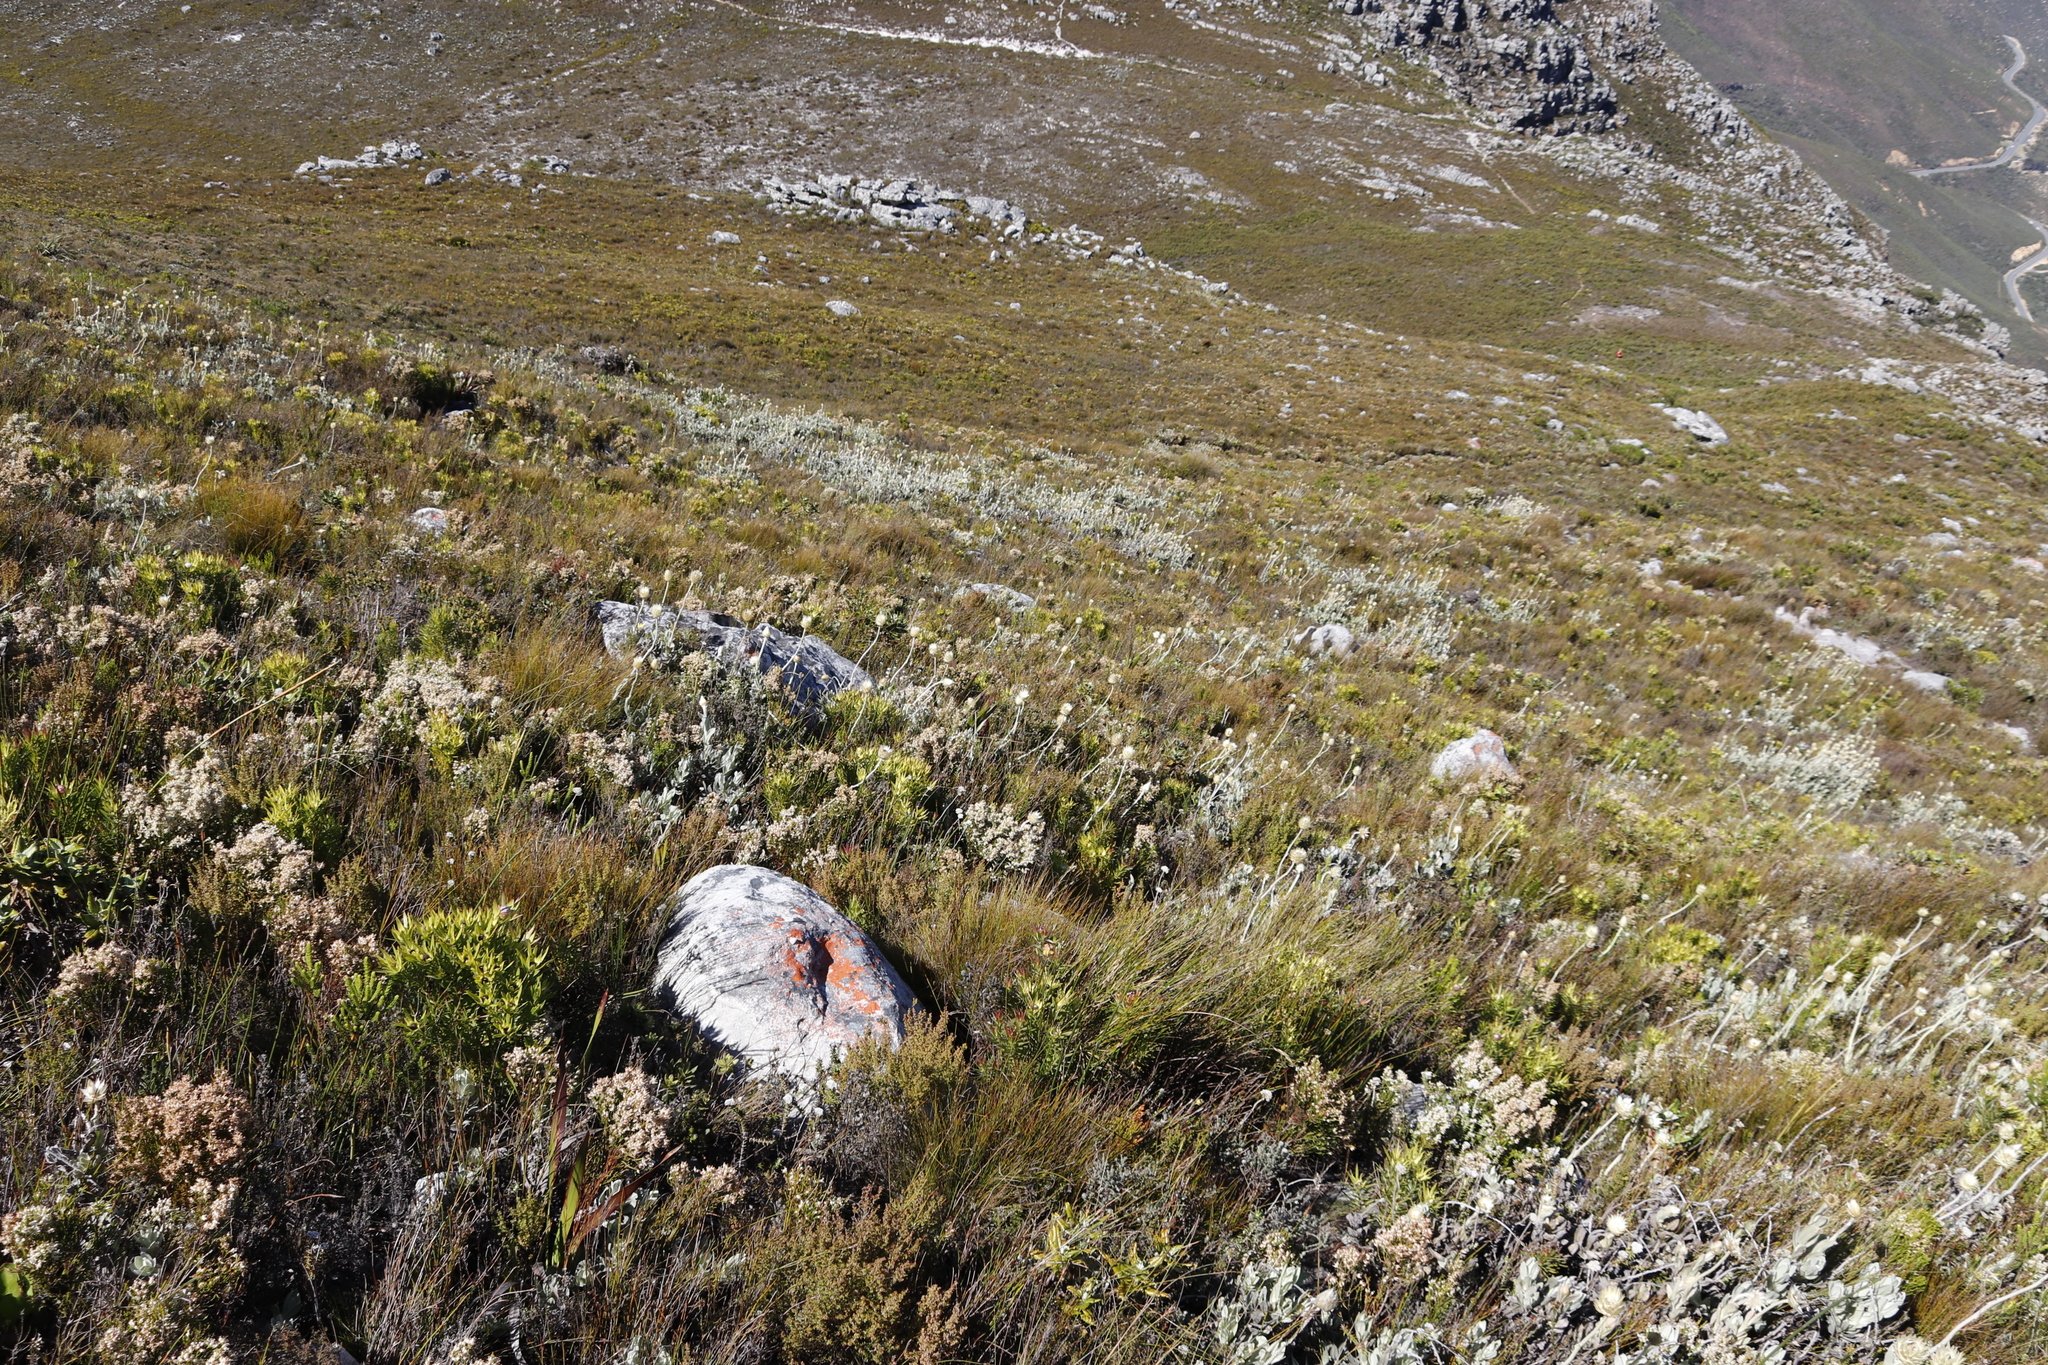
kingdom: Plantae
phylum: Tracheophyta
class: Magnoliopsida
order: Asterales
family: Asteraceae
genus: Syncarpha
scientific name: Syncarpha speciosissima
